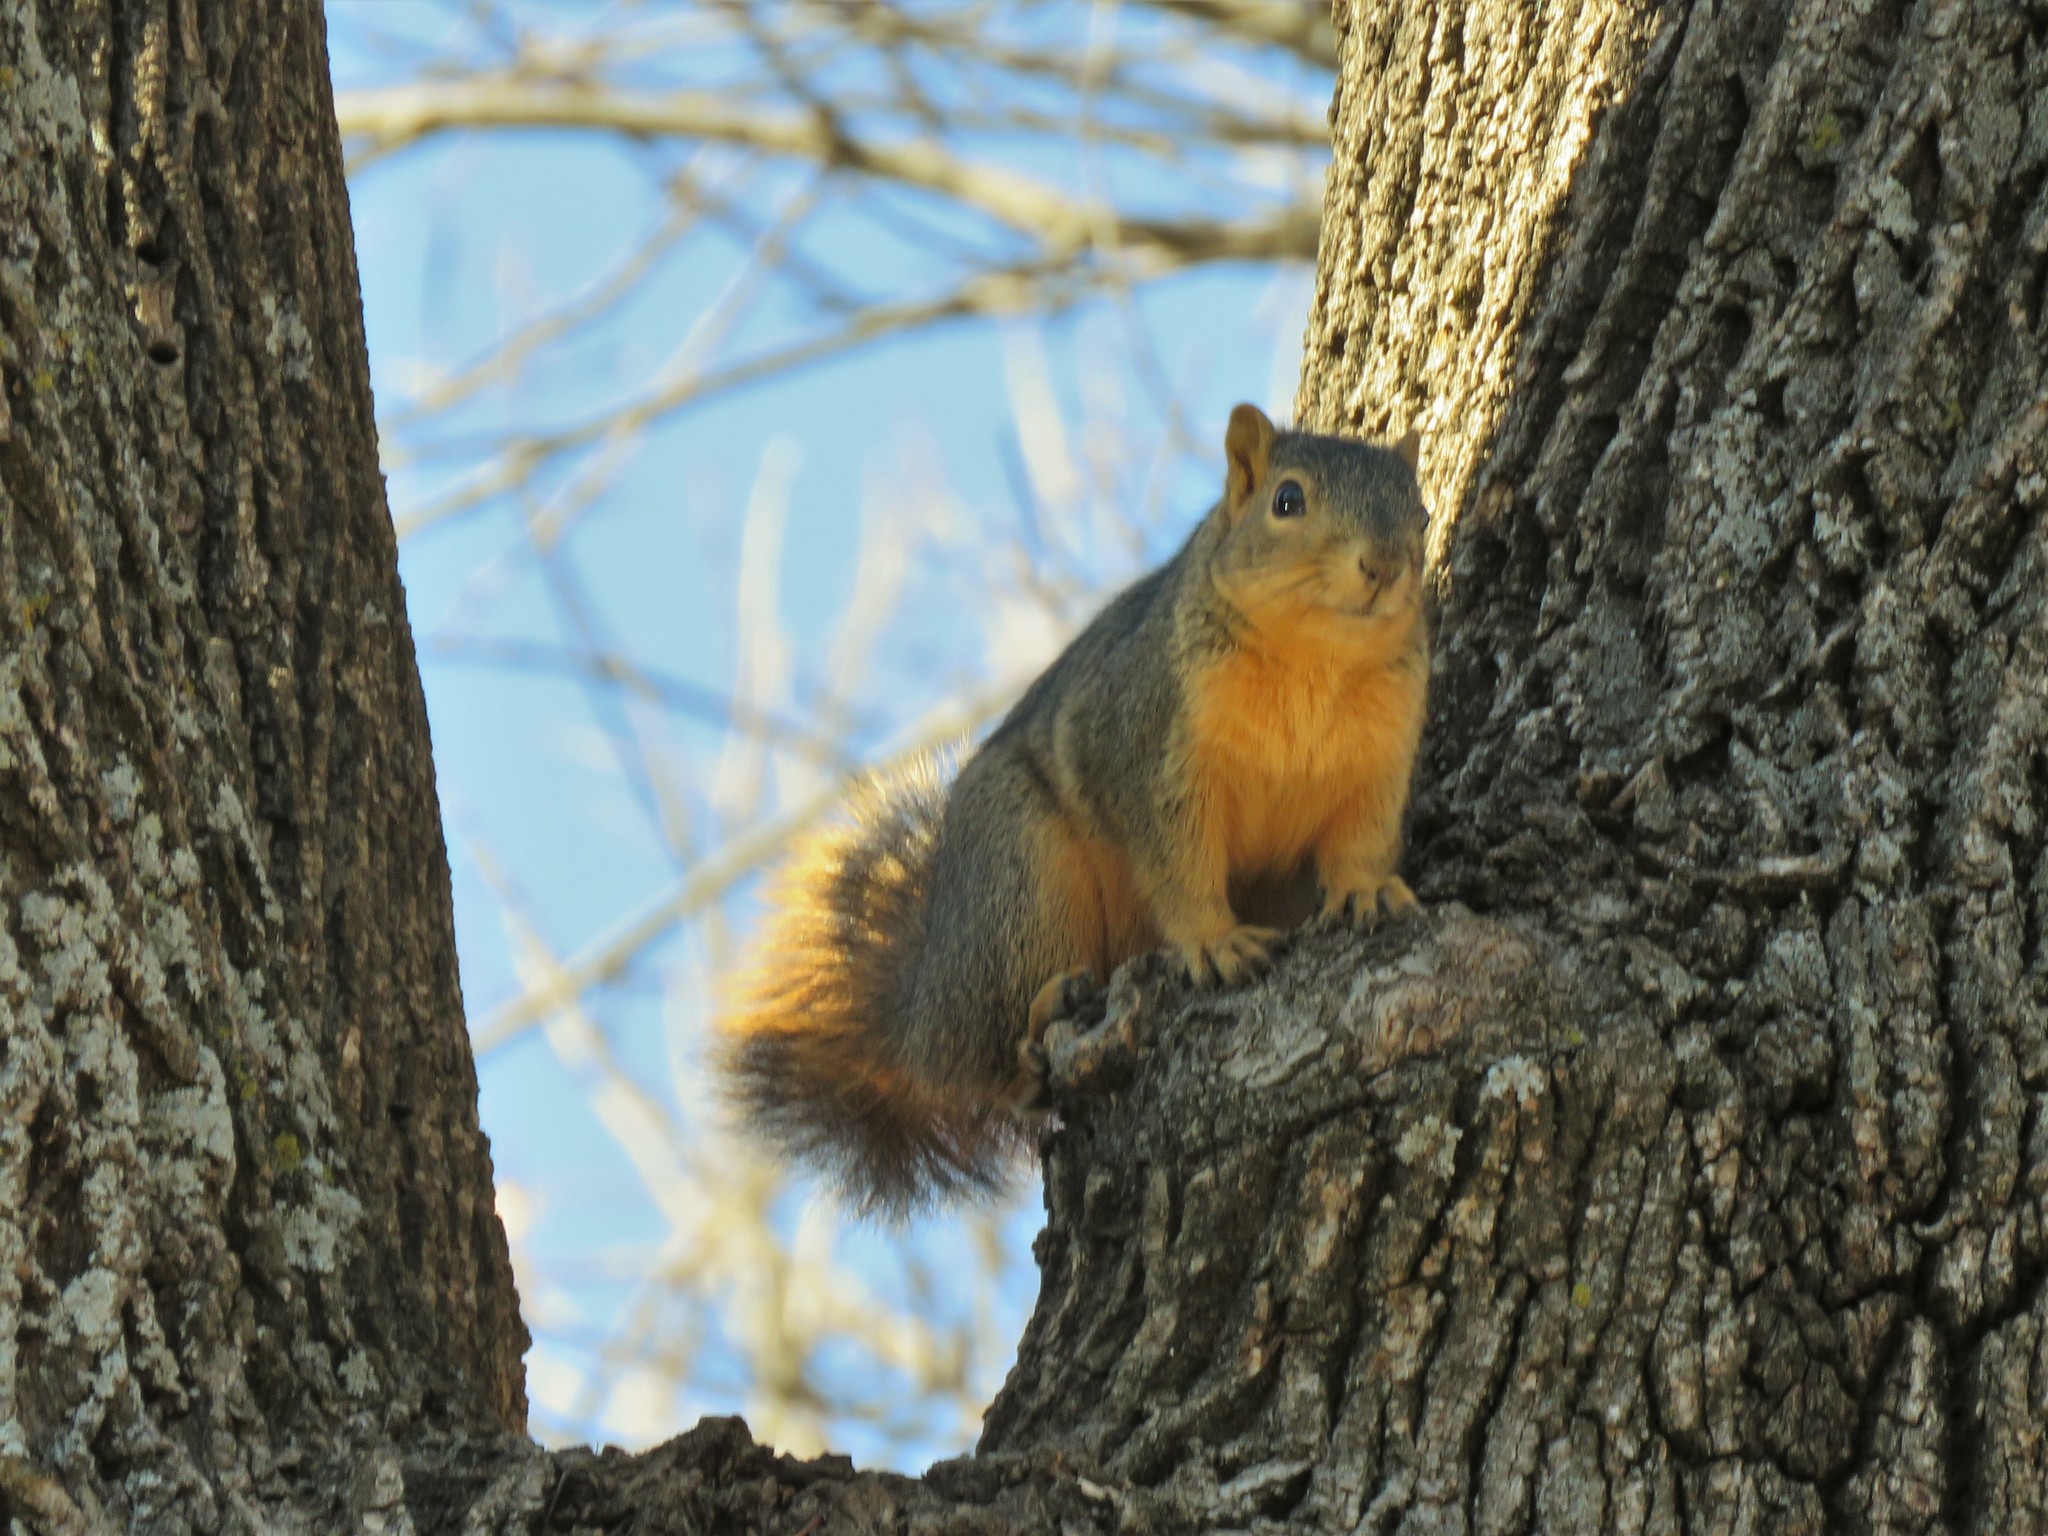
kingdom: Animalia
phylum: Chordata
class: Mammalia
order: Rodentia
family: Sciuridae
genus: Sciurus
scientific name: Sciurus niger
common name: Fox squirrel
